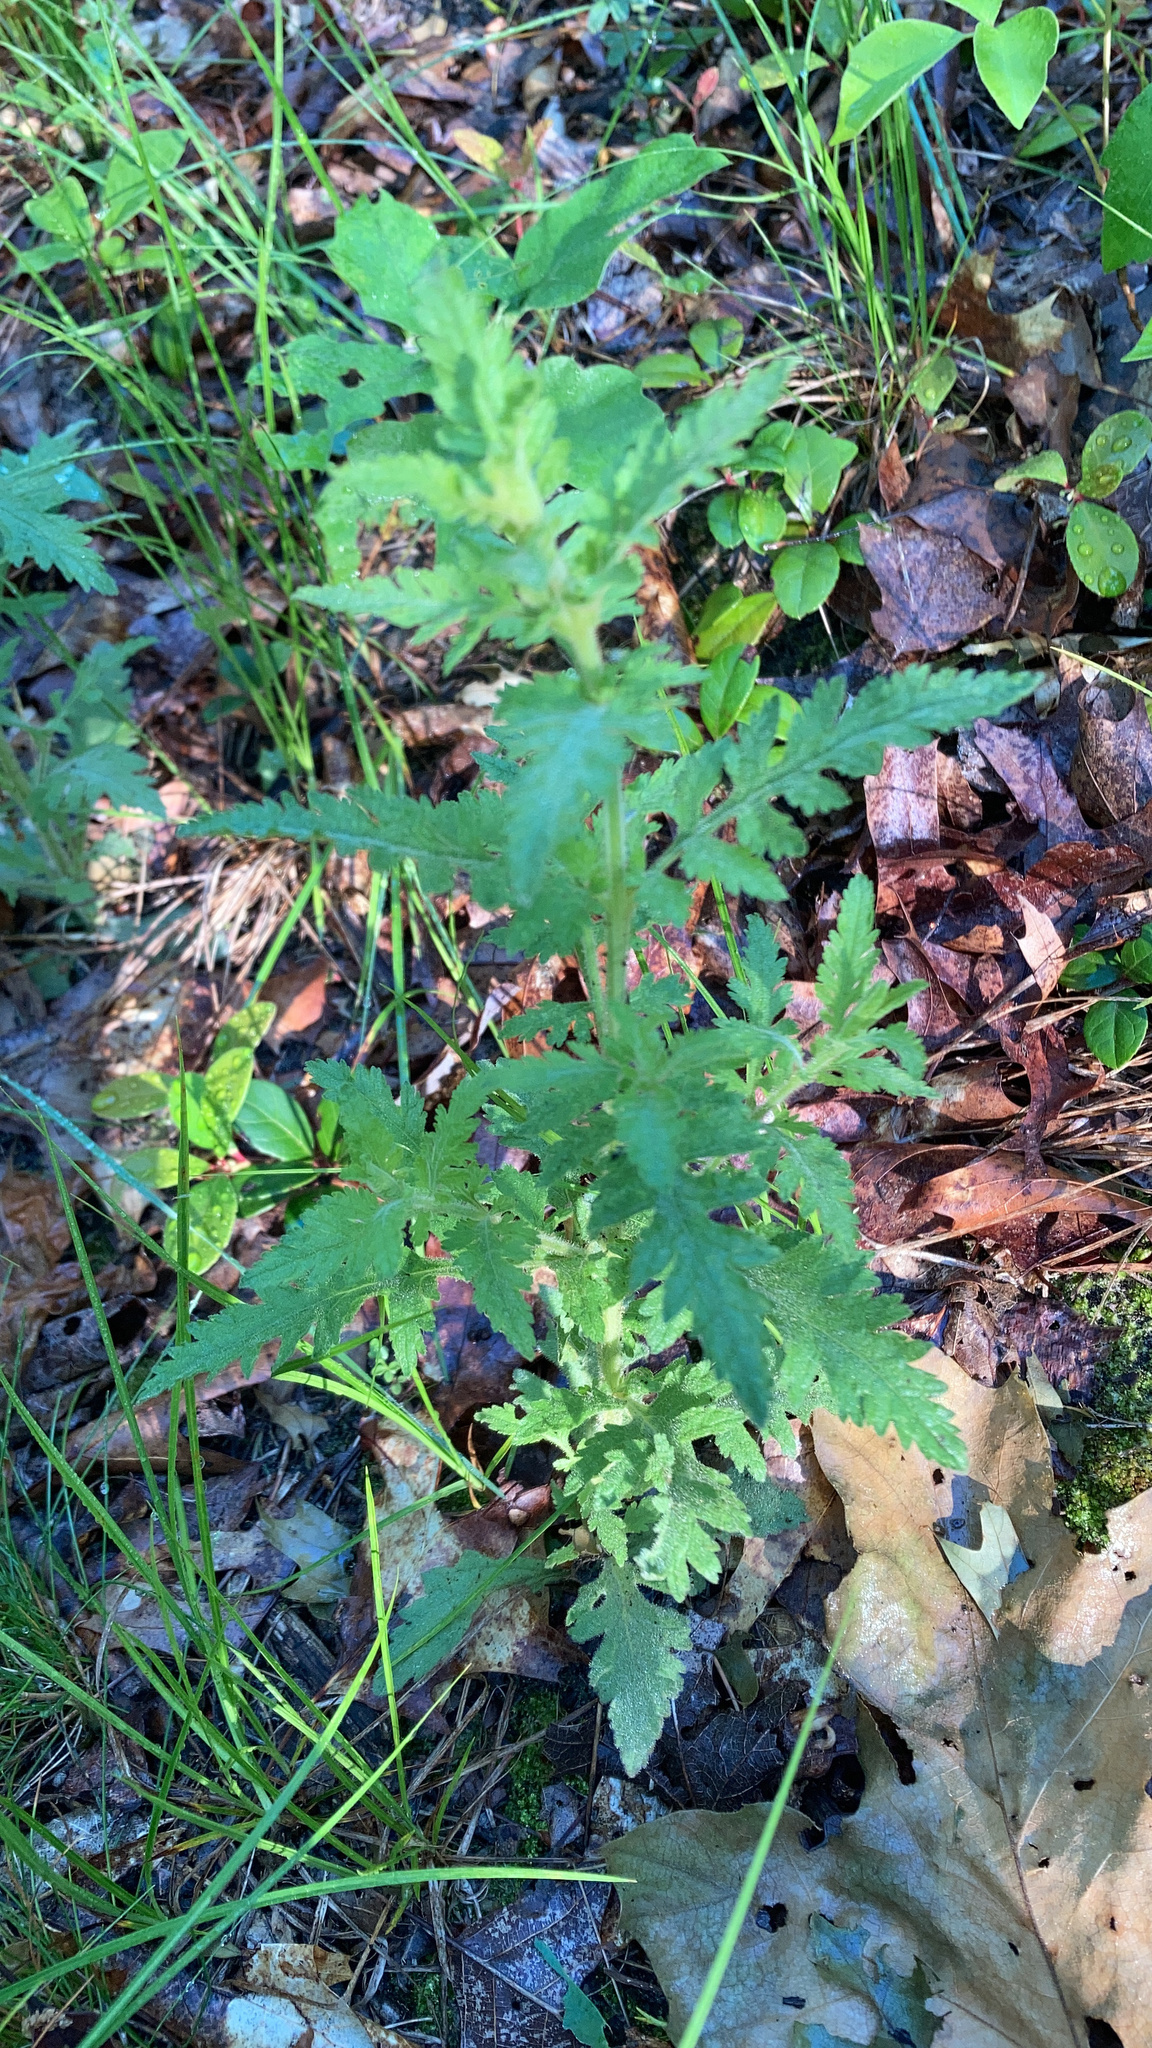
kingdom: Plantae
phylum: Tracheophyta
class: Magnoliopsida
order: Lamiales
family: Orobanchaceae
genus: Aureolaria
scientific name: Aureolaria pedicularia
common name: Annual false foxglove
